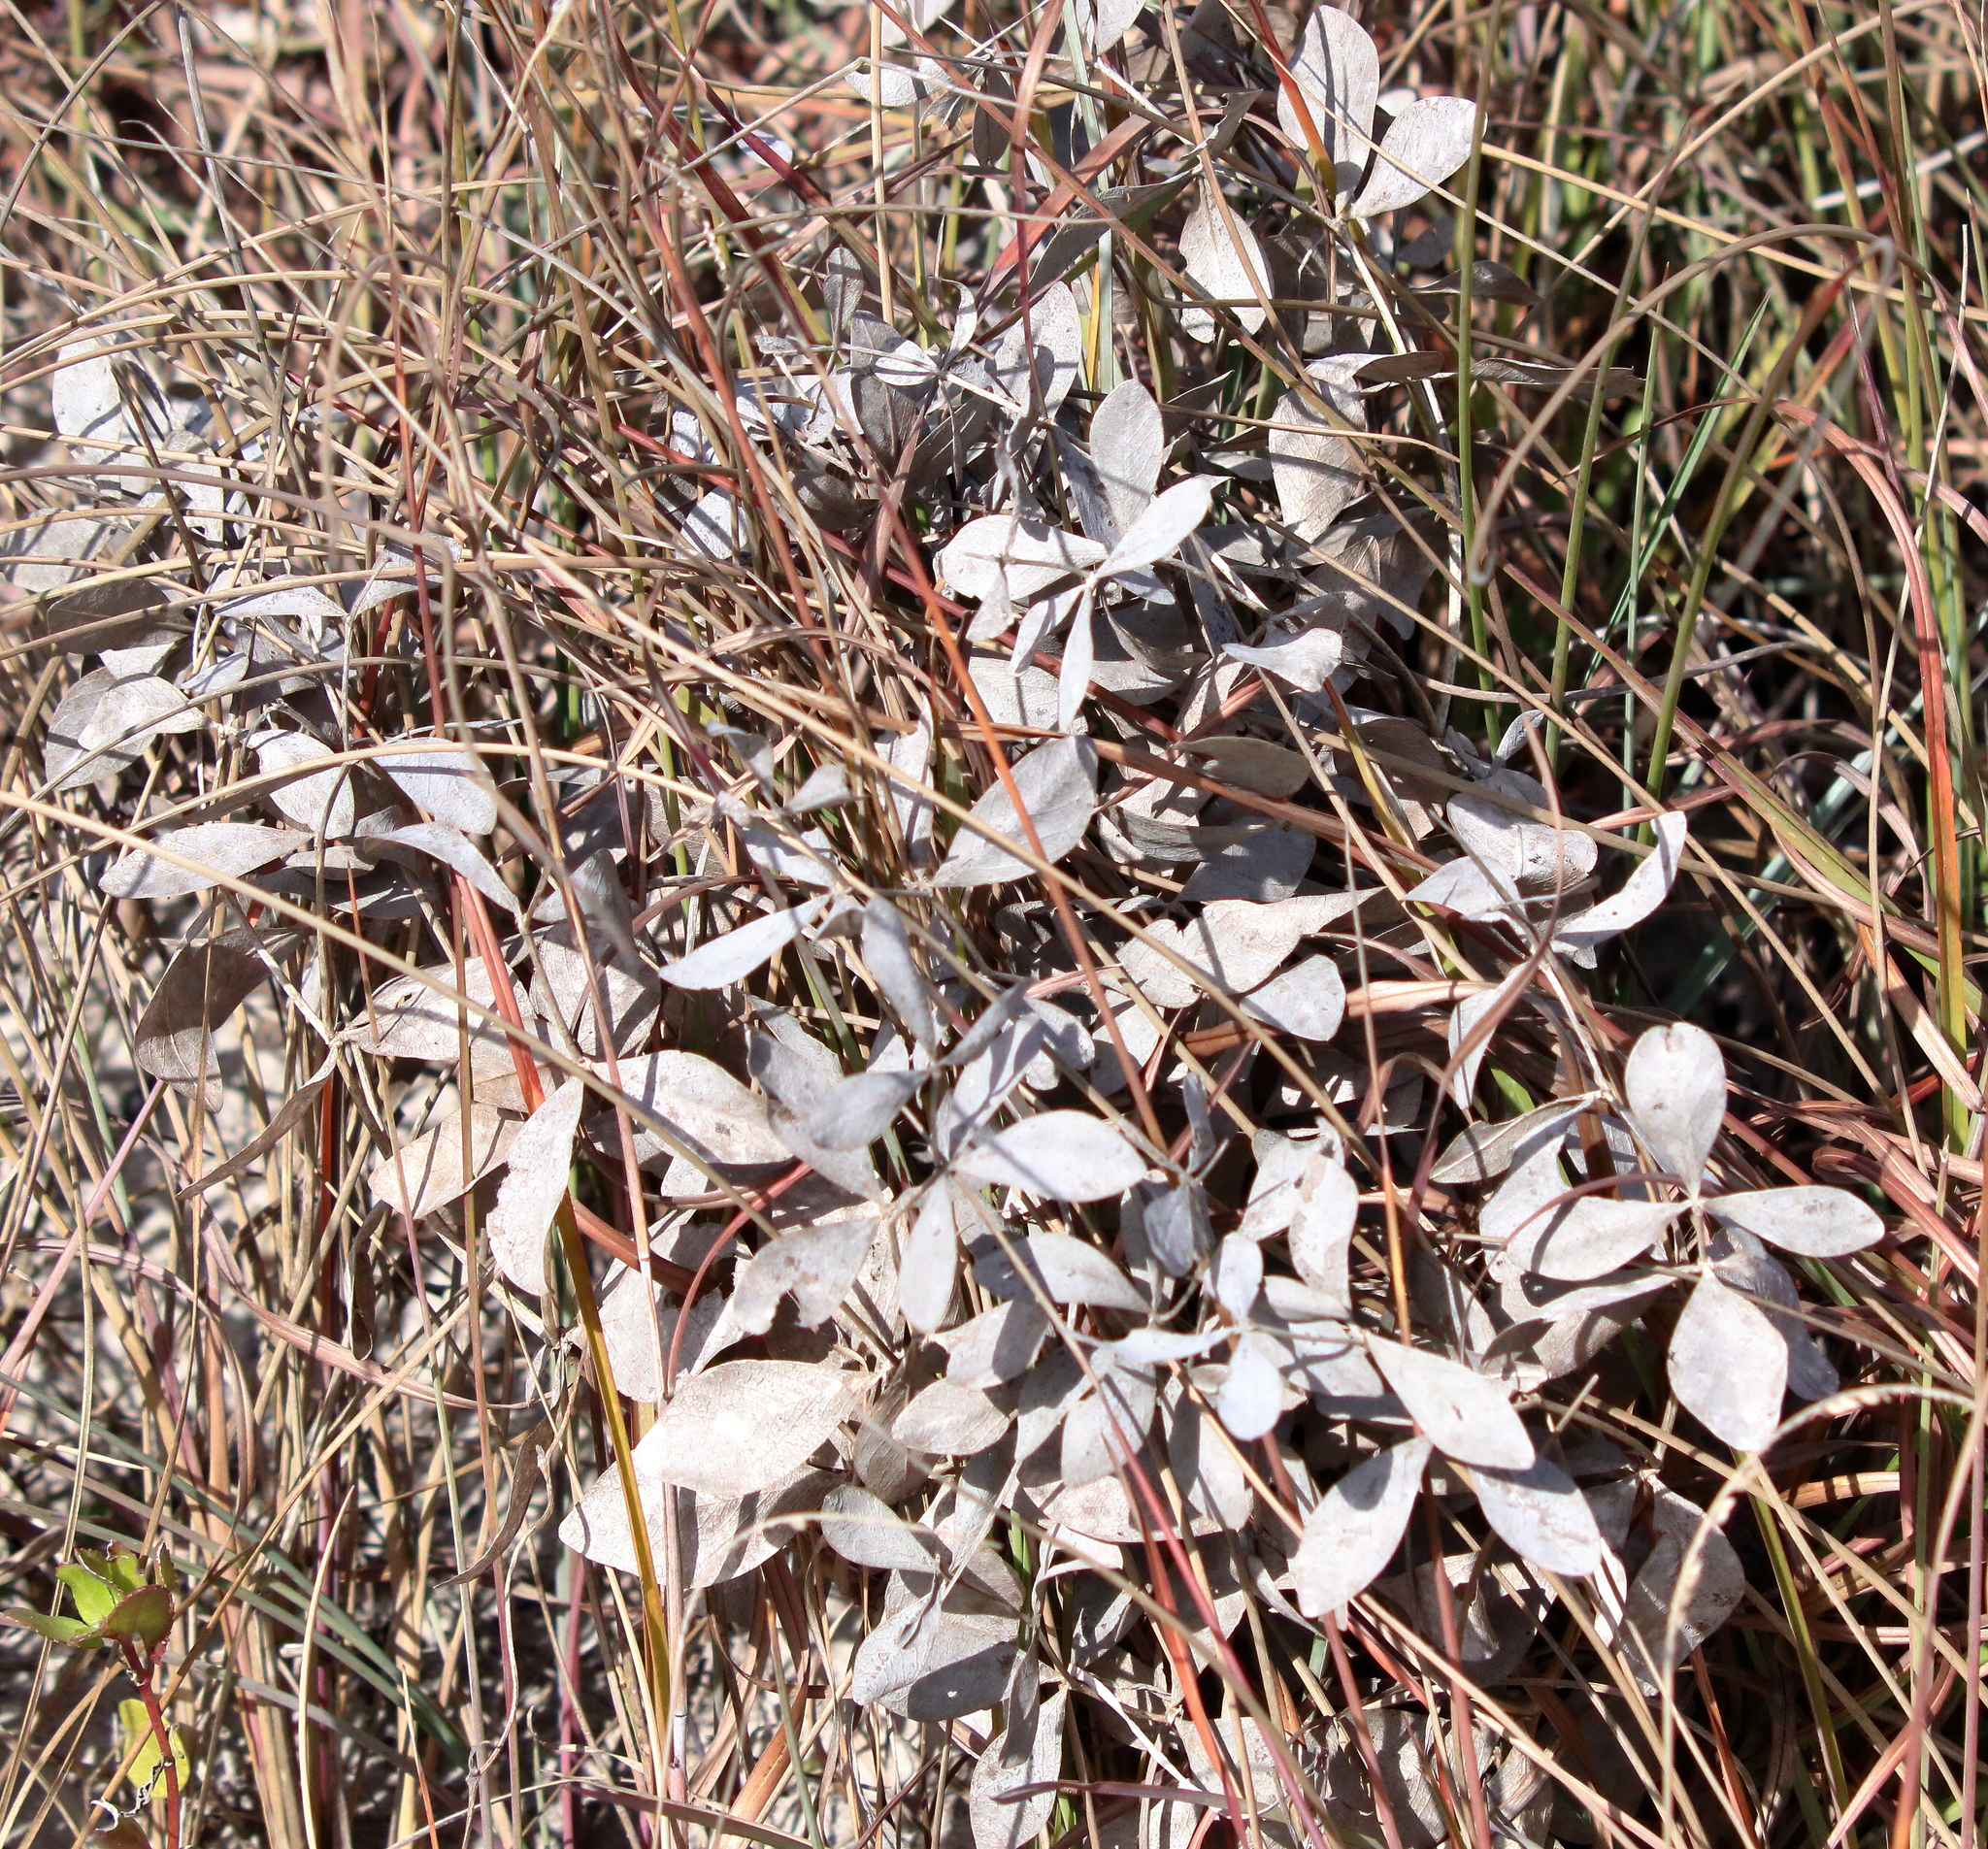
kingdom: Plantae
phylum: Tracheophyta
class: Magnoliopsida
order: Fabales
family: Fabaceae
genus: Baptisia
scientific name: Baptisia bracteata
